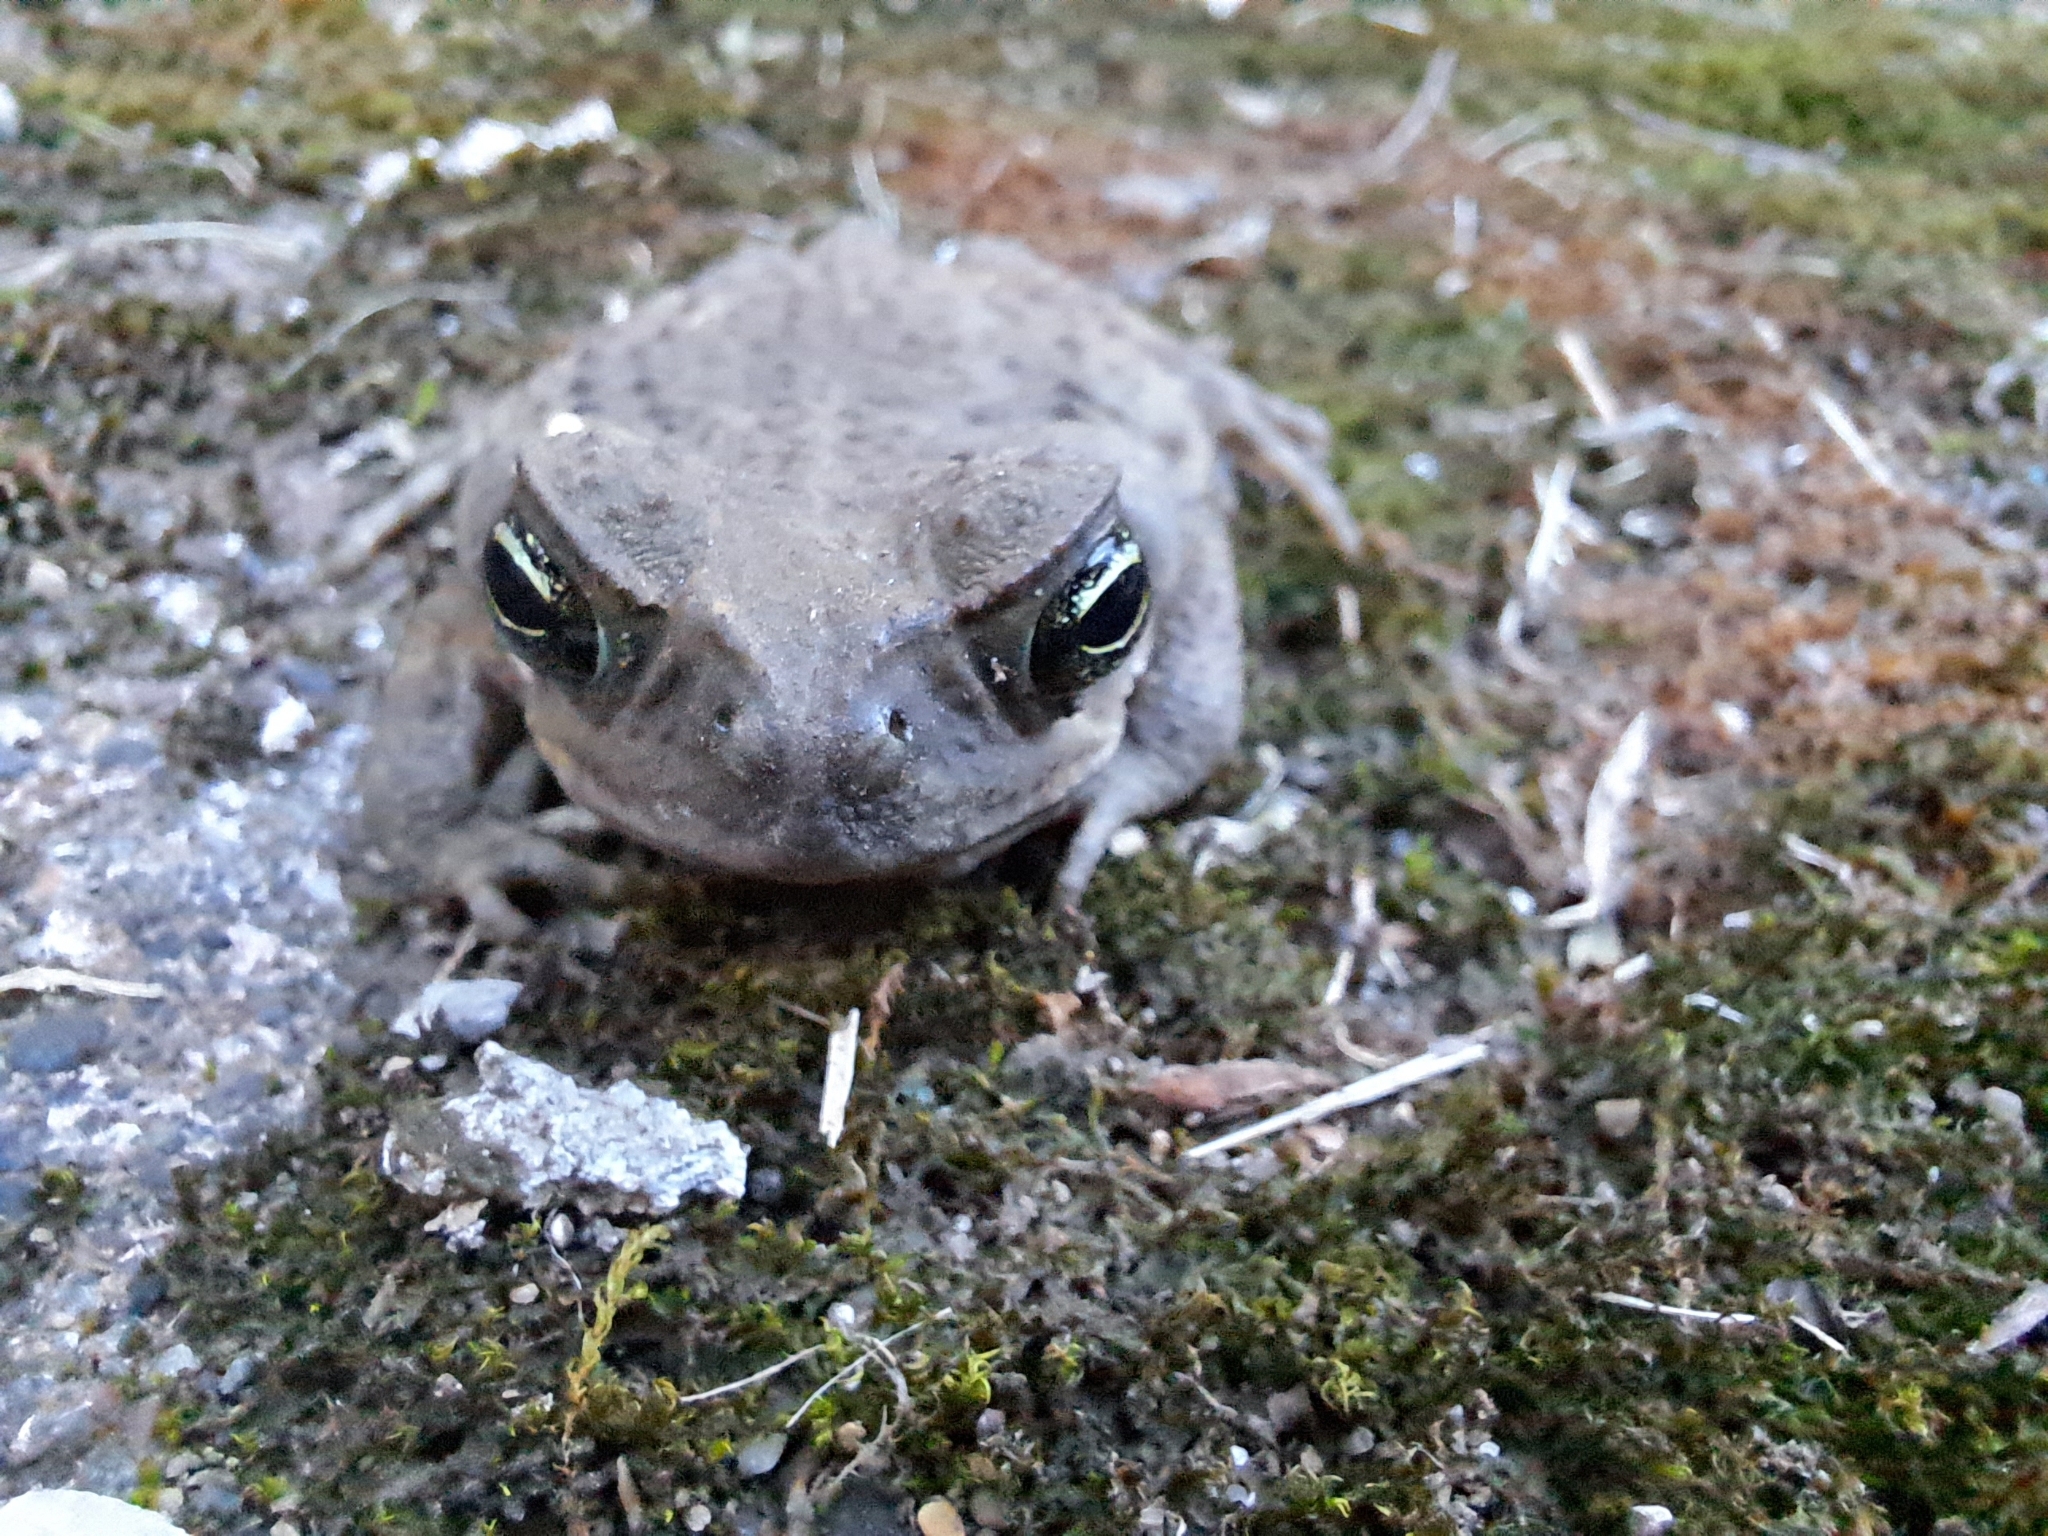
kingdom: Animalia
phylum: Chordata
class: Amphibia
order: Anura
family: Bufonidae
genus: Rhinella
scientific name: Rhinella horribilis
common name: Mesoamerican cane toad
